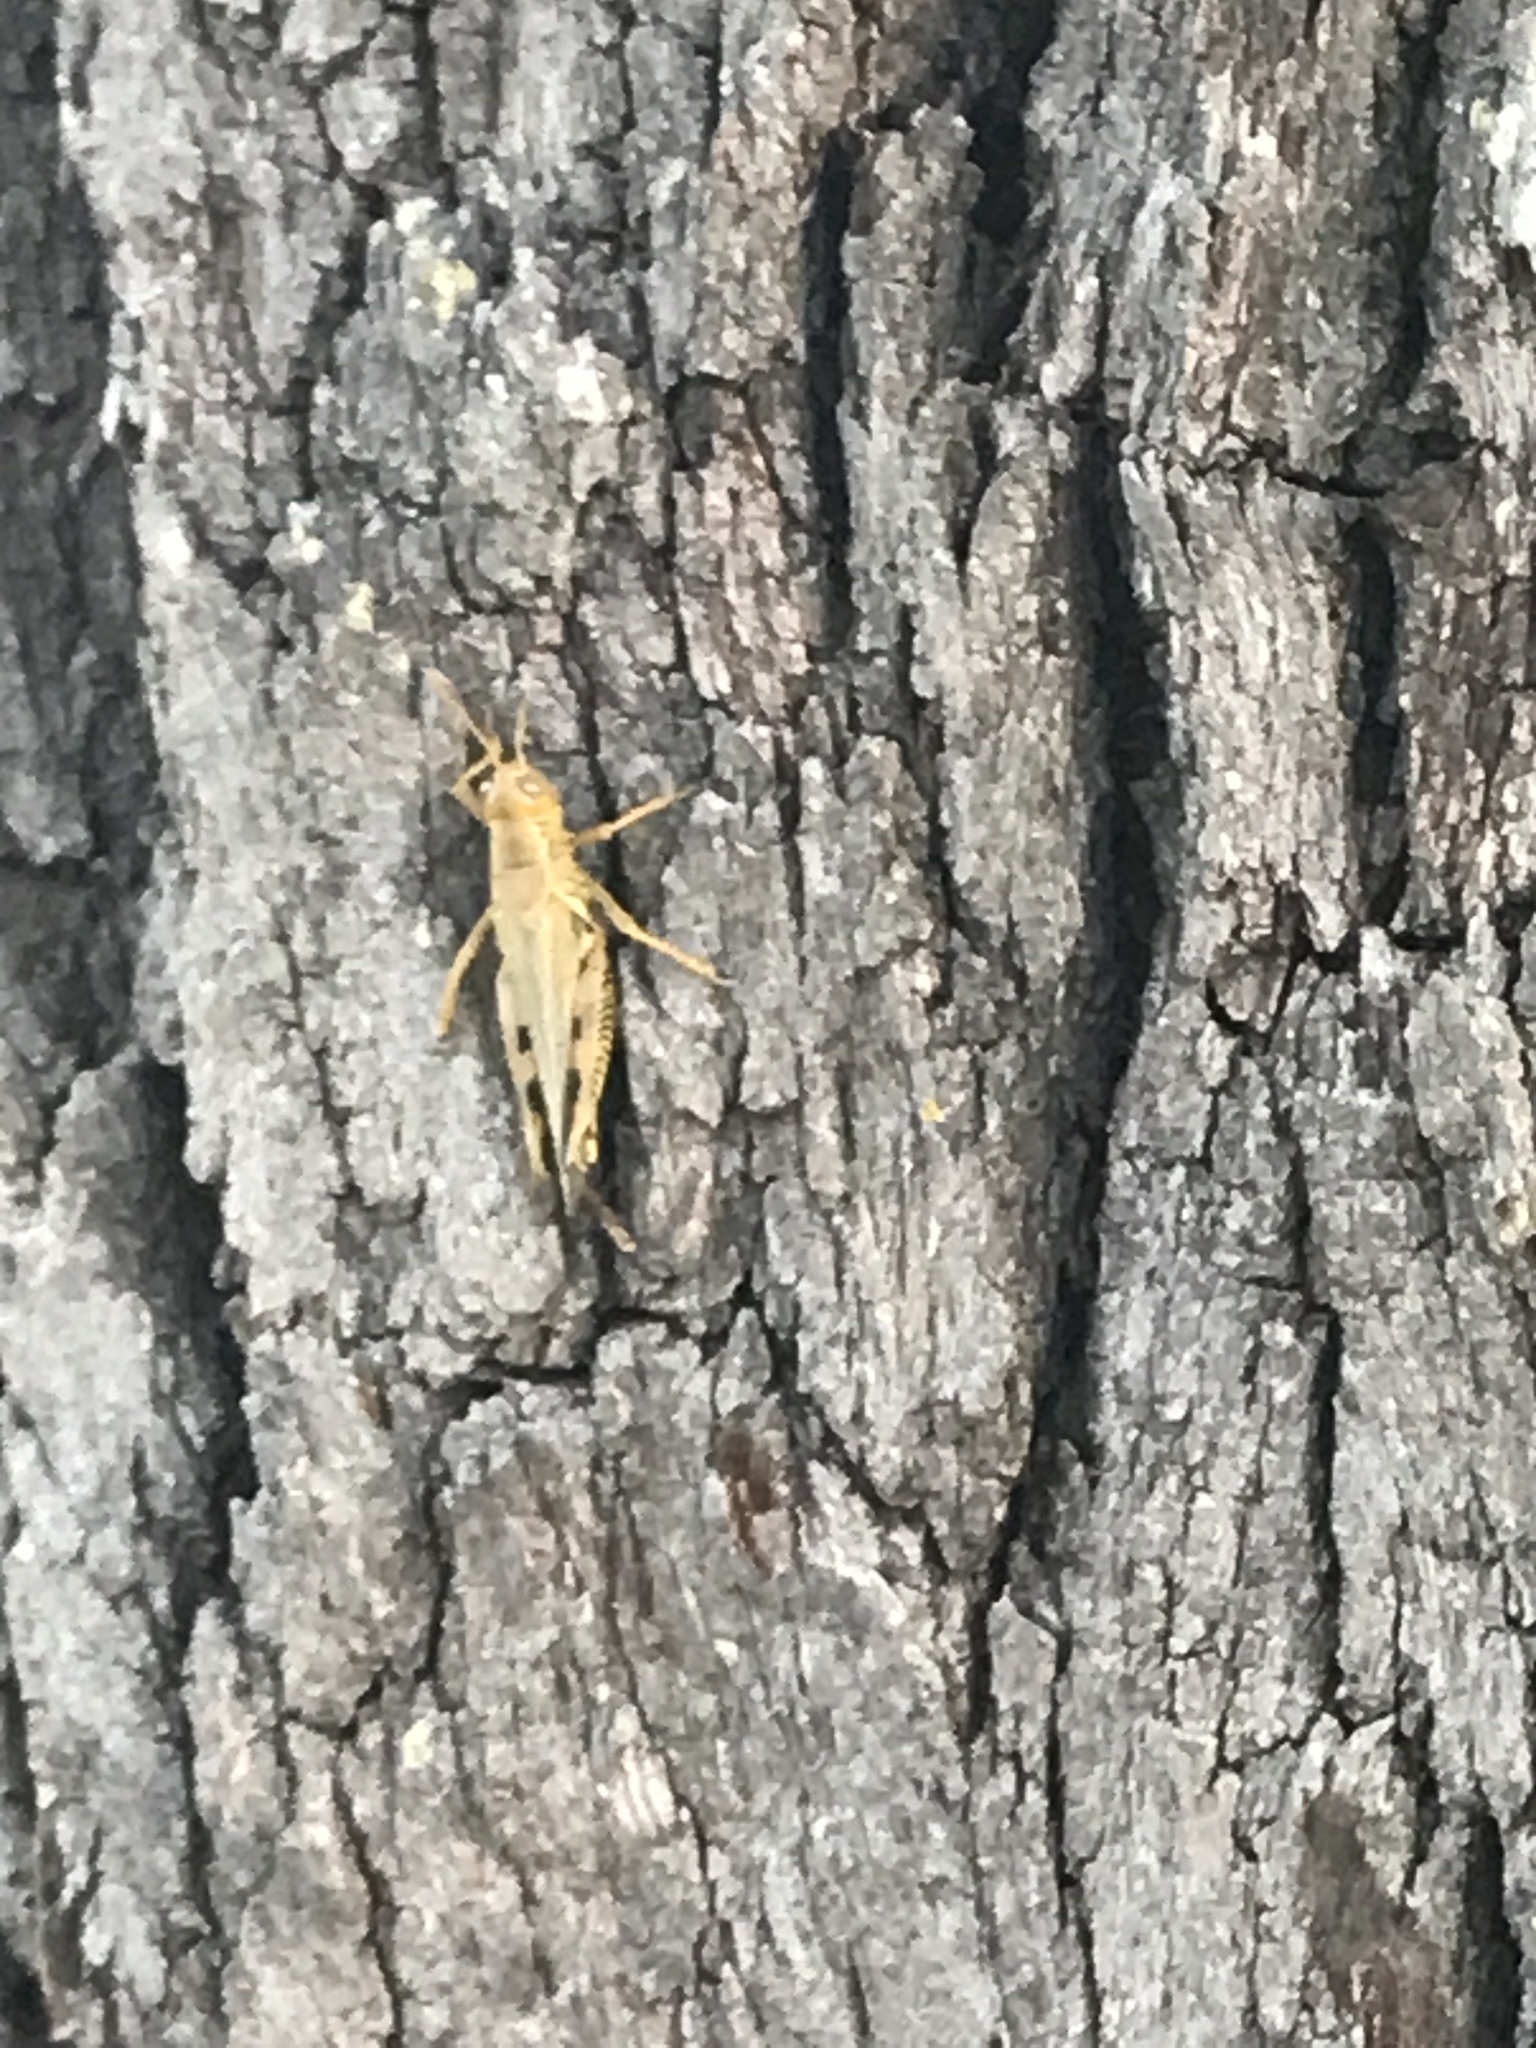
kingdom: Animalia
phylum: Arthropoda
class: Insecta
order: Orthoptera
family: Acrididae
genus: Melanoplus
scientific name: Melanoplus differentialis
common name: Differential grasshopper
